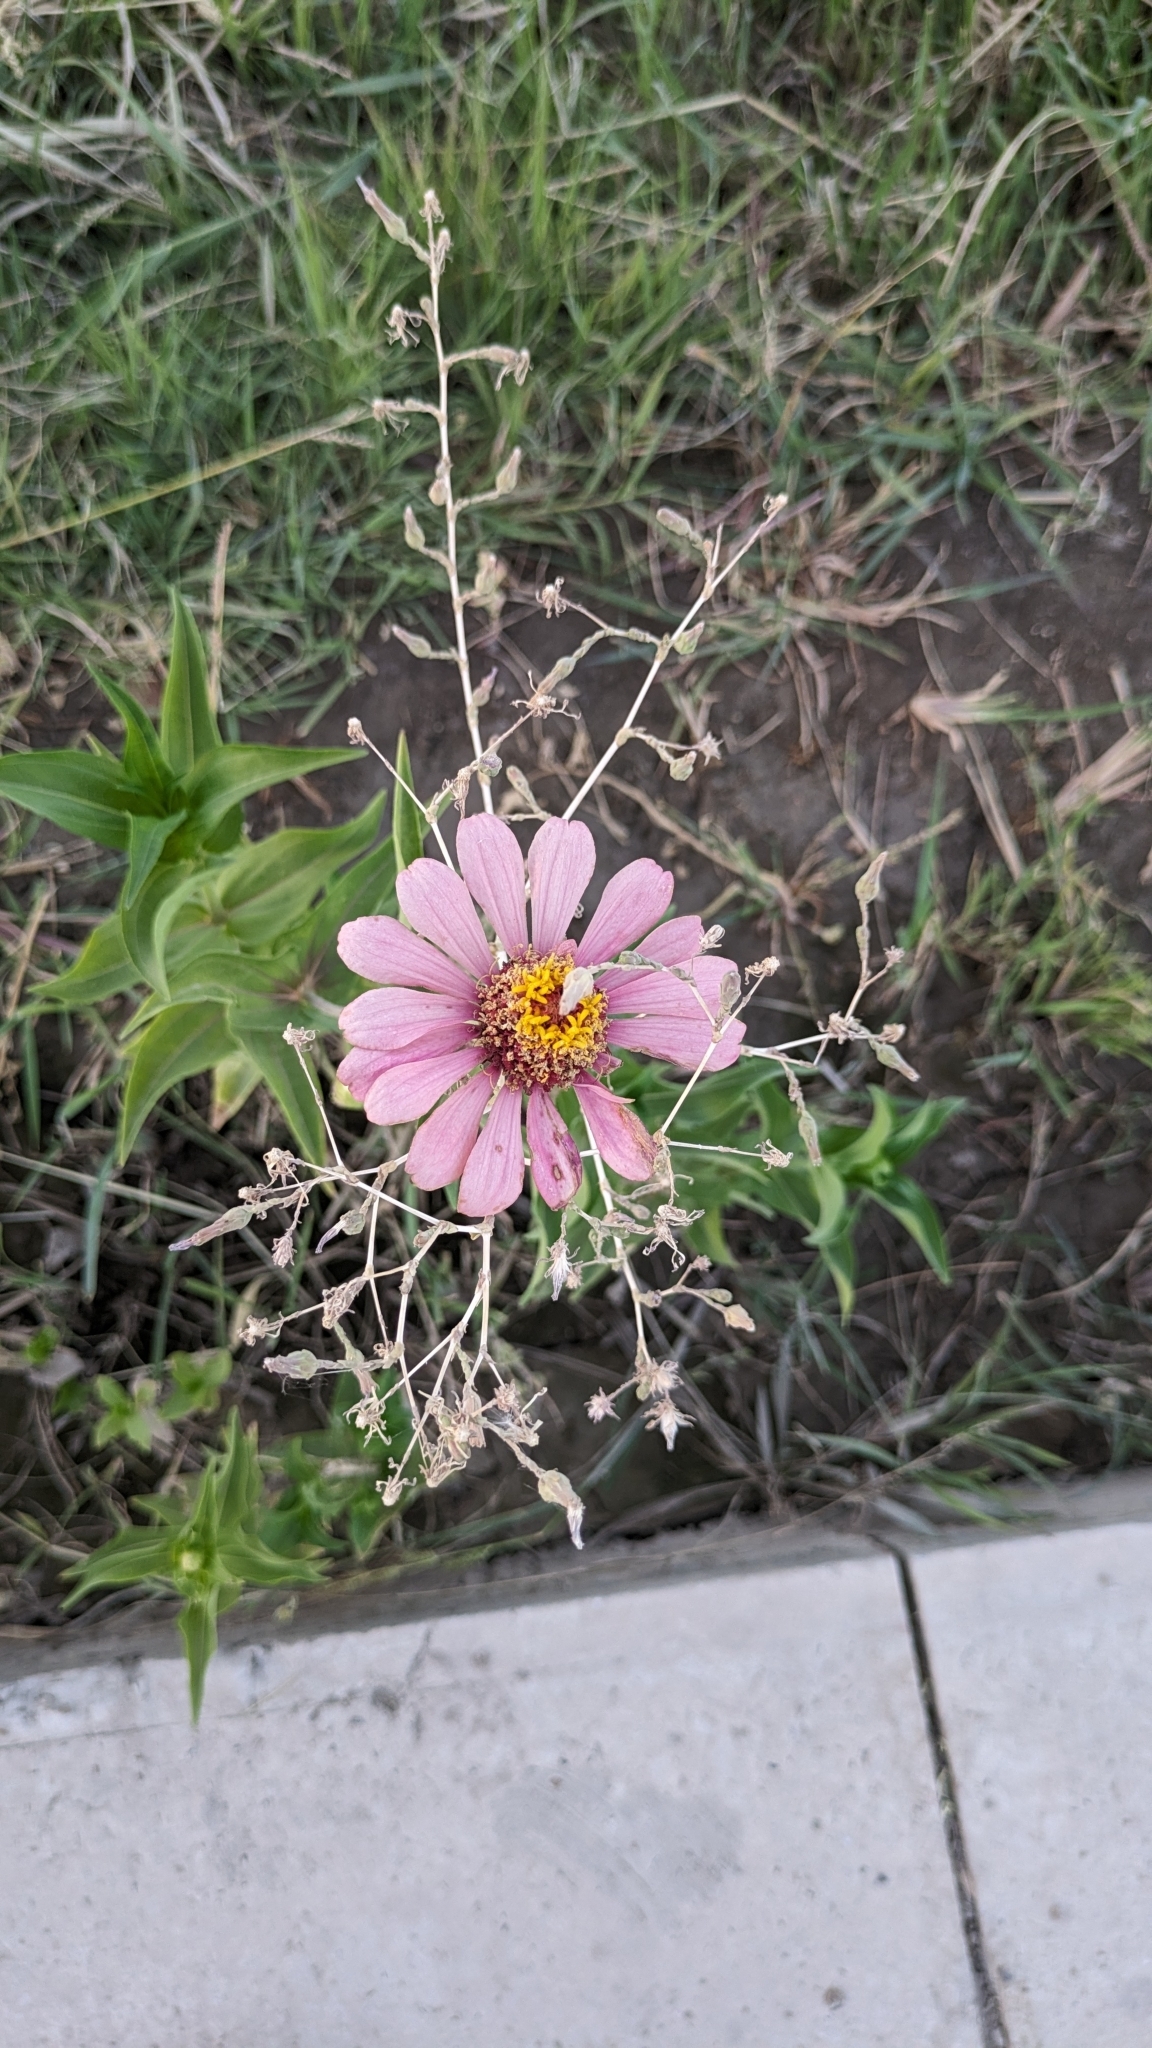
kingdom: Plantae
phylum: Tracheophyta
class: Magnoliopsida
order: Asterales
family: Asteraceae
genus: Zinnia
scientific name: Zinnia elegans
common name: Youth-and-age
